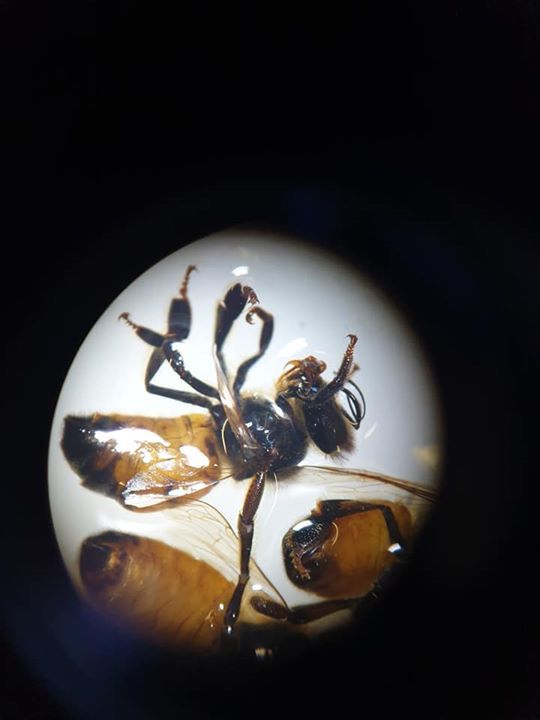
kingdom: Animalia
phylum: Arthropoda
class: Insecta
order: Hymenoptera
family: Apidae
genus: Apis
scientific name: Apis mellifera
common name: Honey bee
